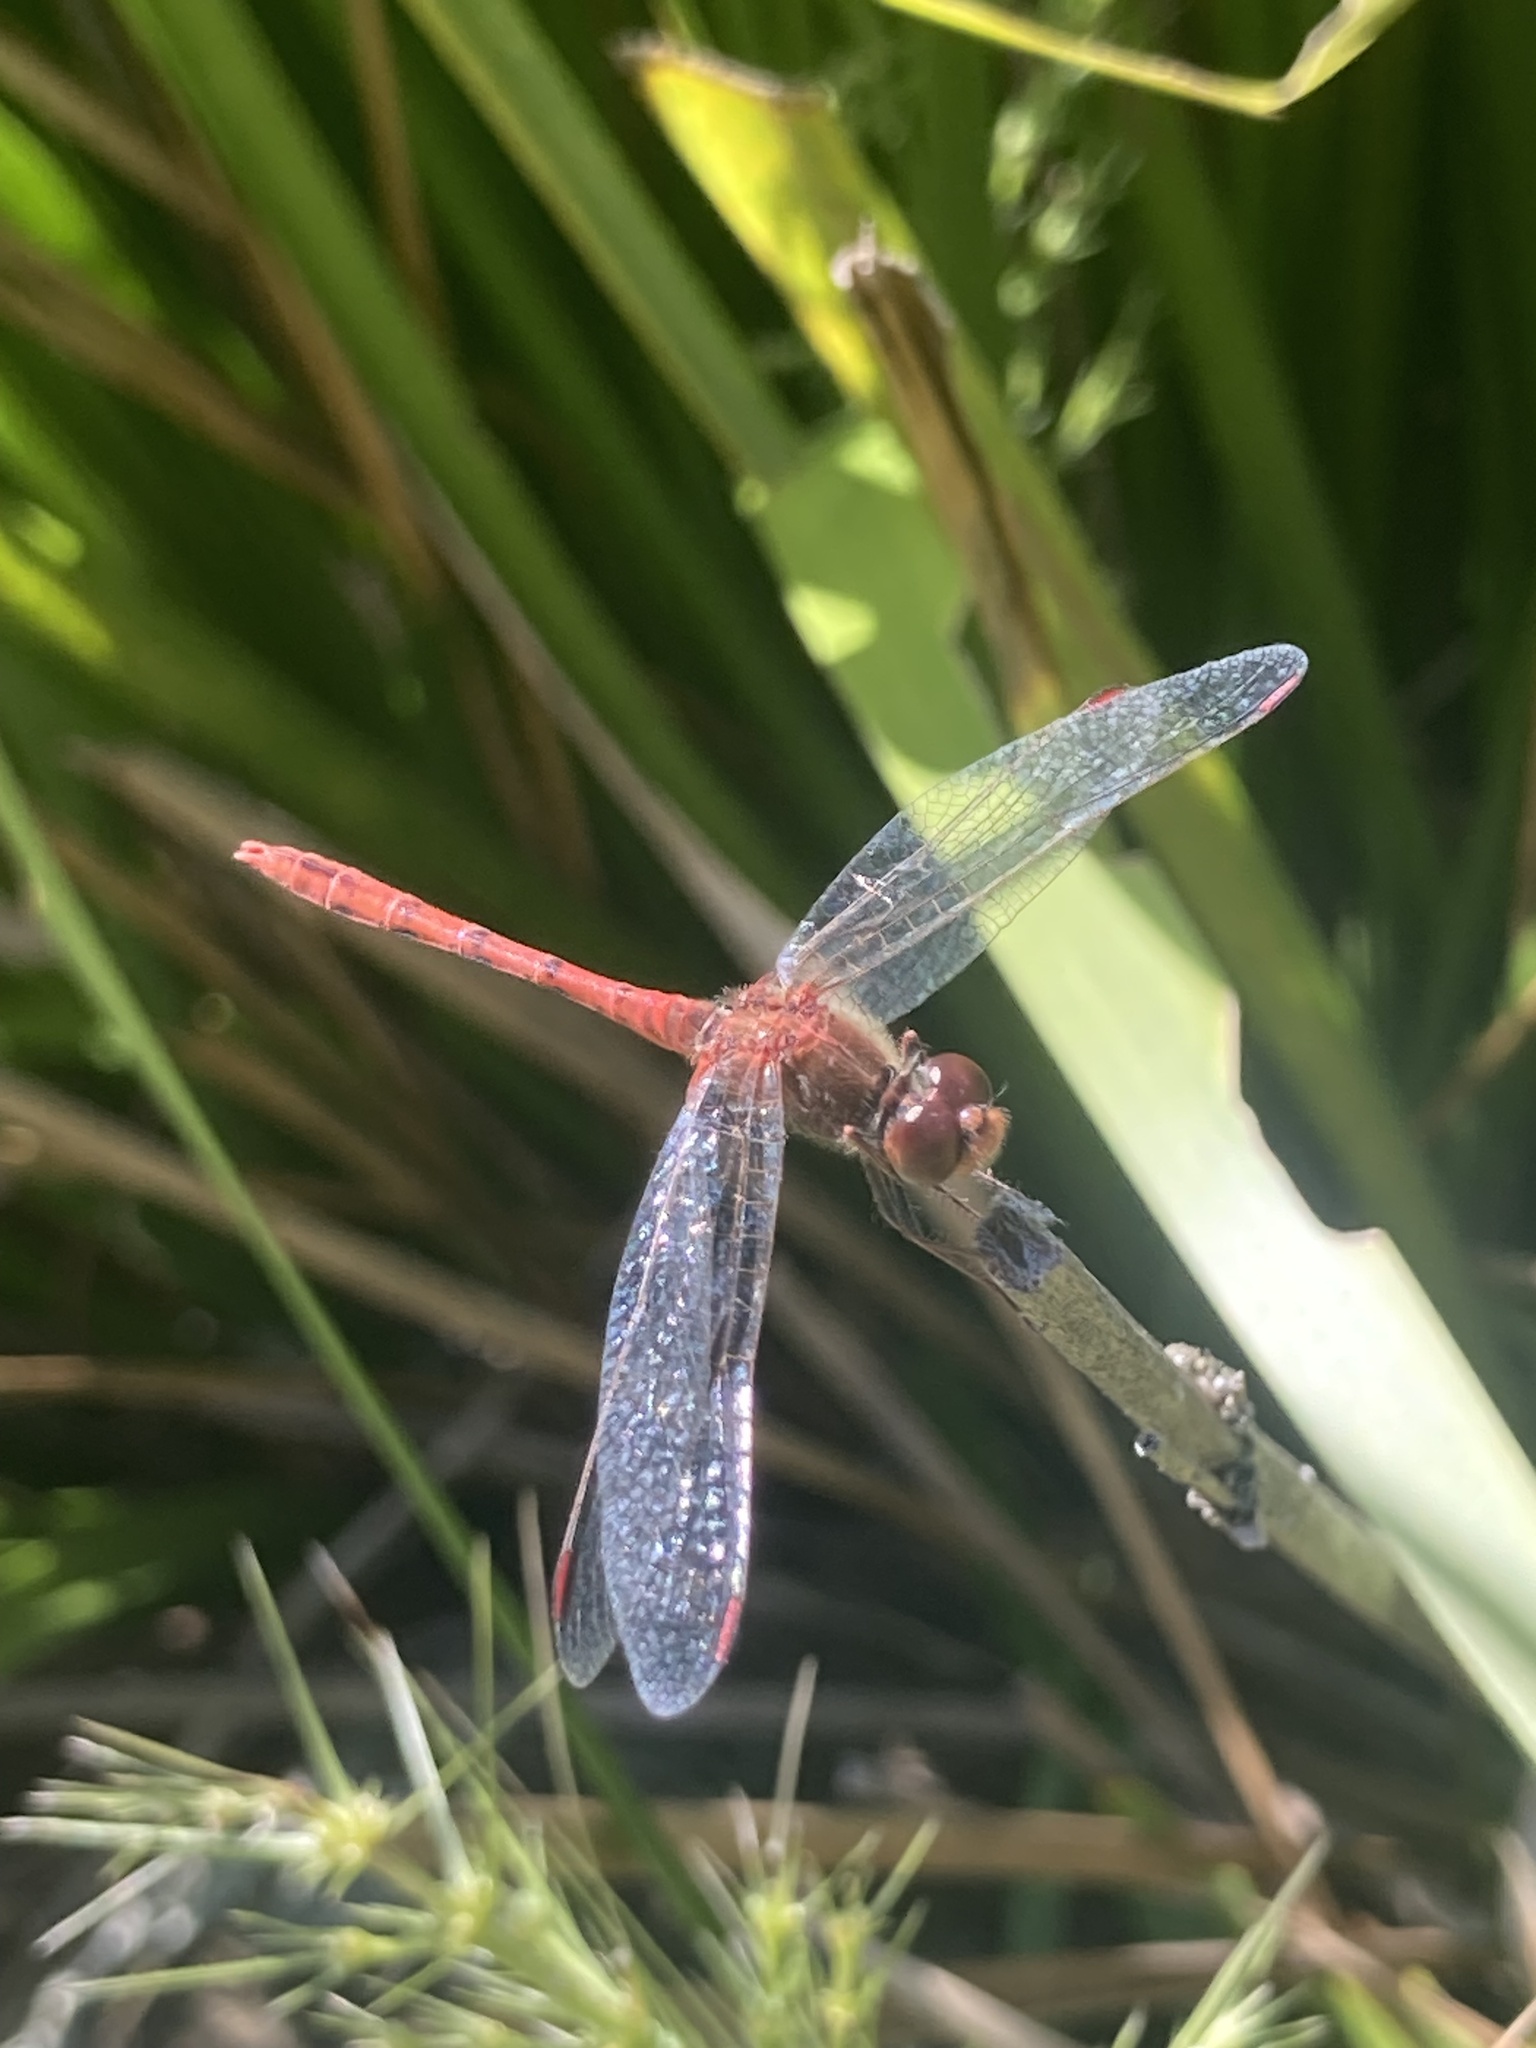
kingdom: Animalia
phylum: Arthropoda
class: Insecta
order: Odonata
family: Libellulidae
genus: Diplacodes
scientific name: Diplacodes bipunctata
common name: Red percher dragonfly
